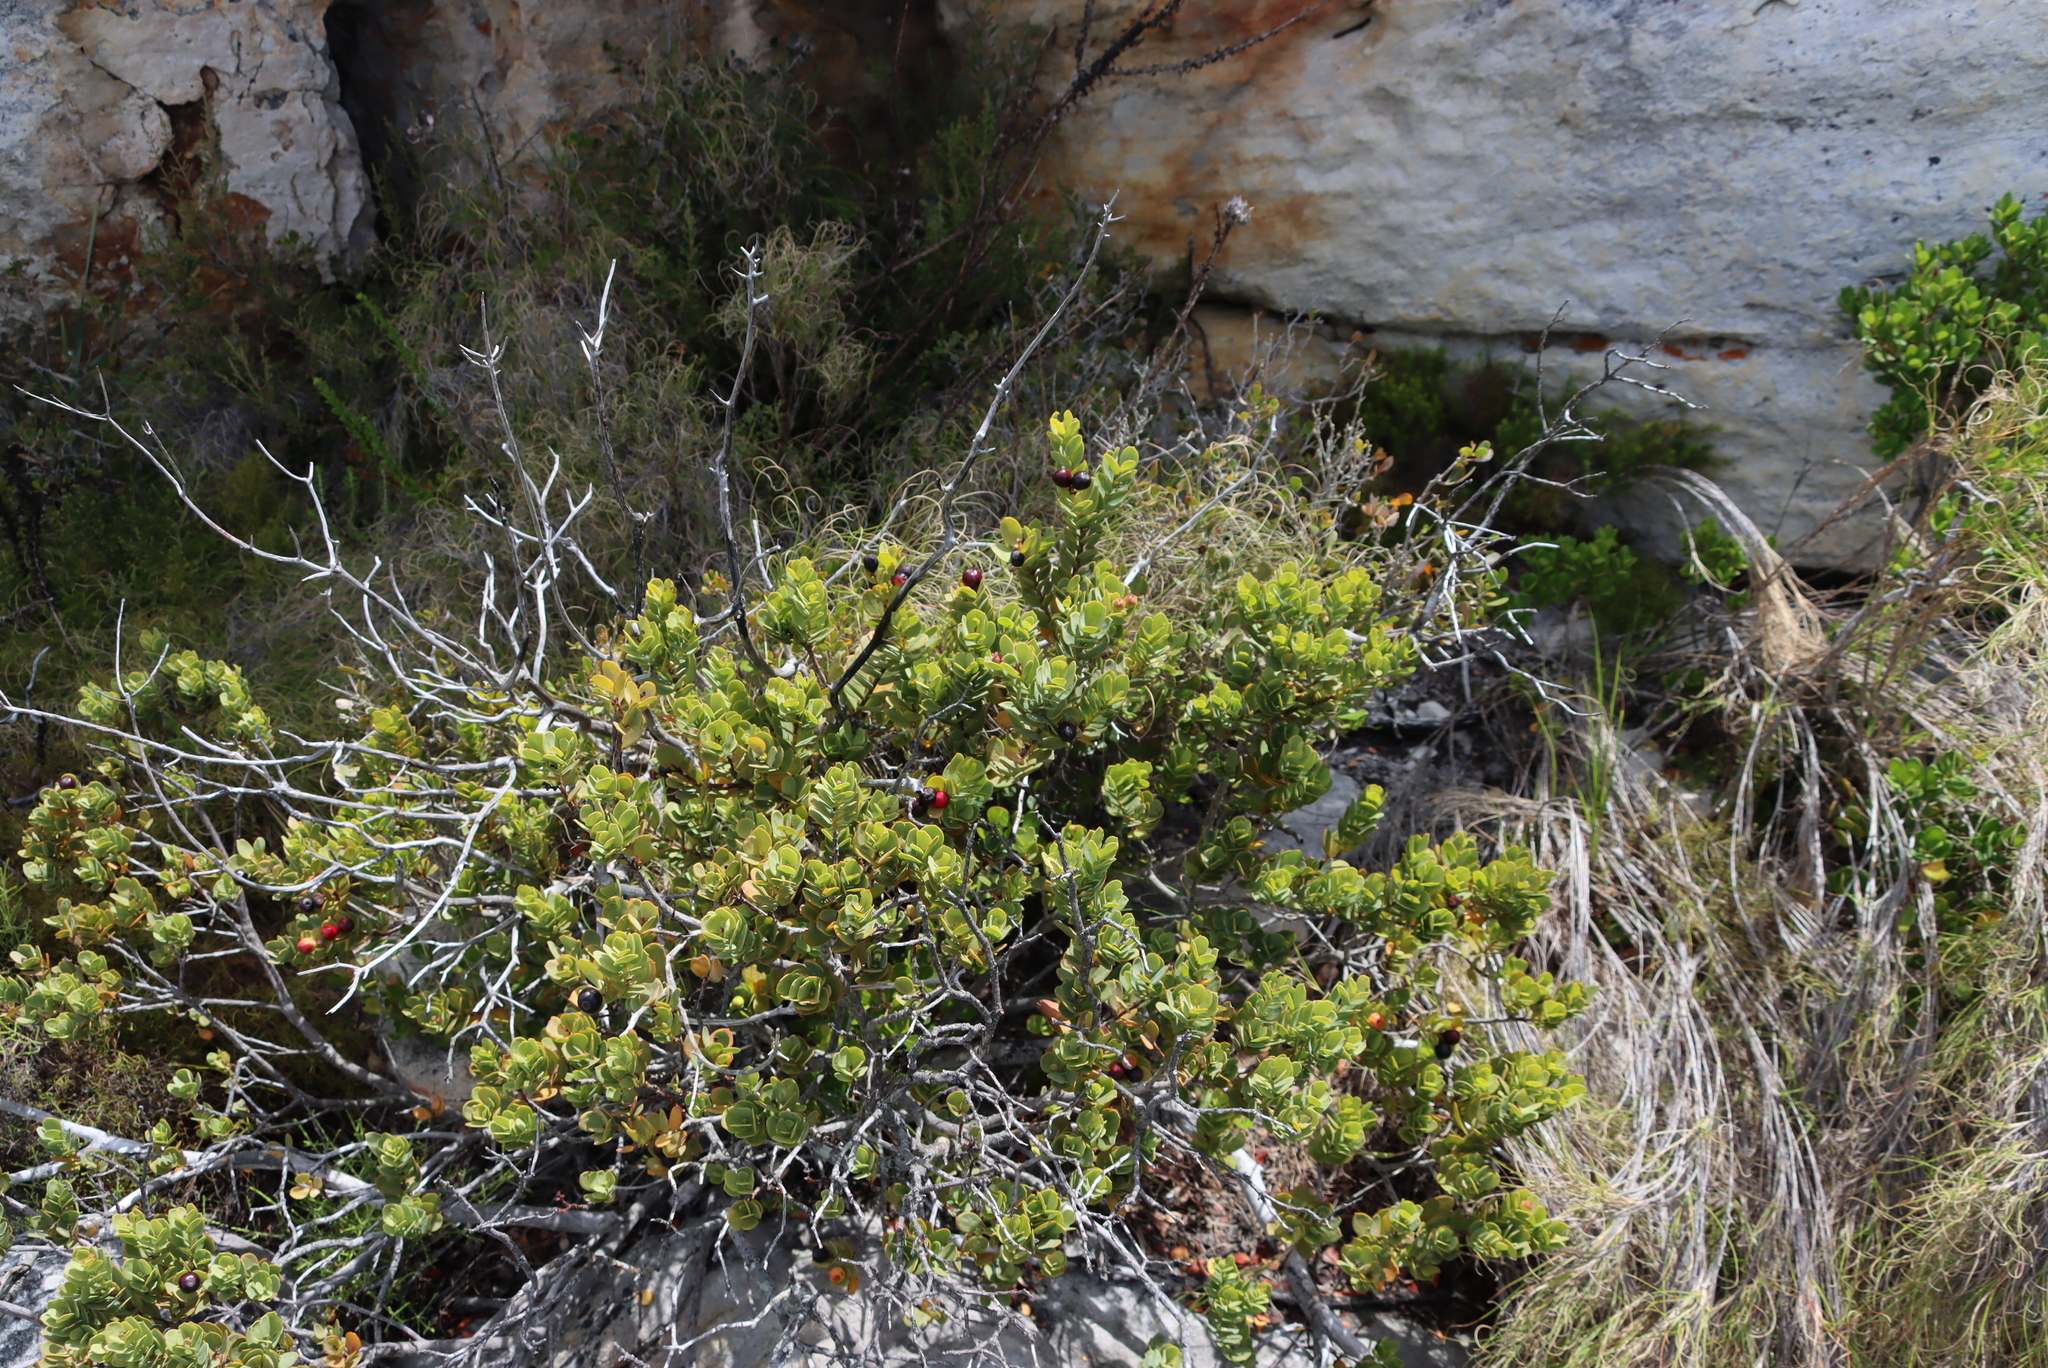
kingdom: Plantae
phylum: Tracheophyta
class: Magnoliopsida
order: Santalales
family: Santalaceae
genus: Osyris
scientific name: Osyris compressa
